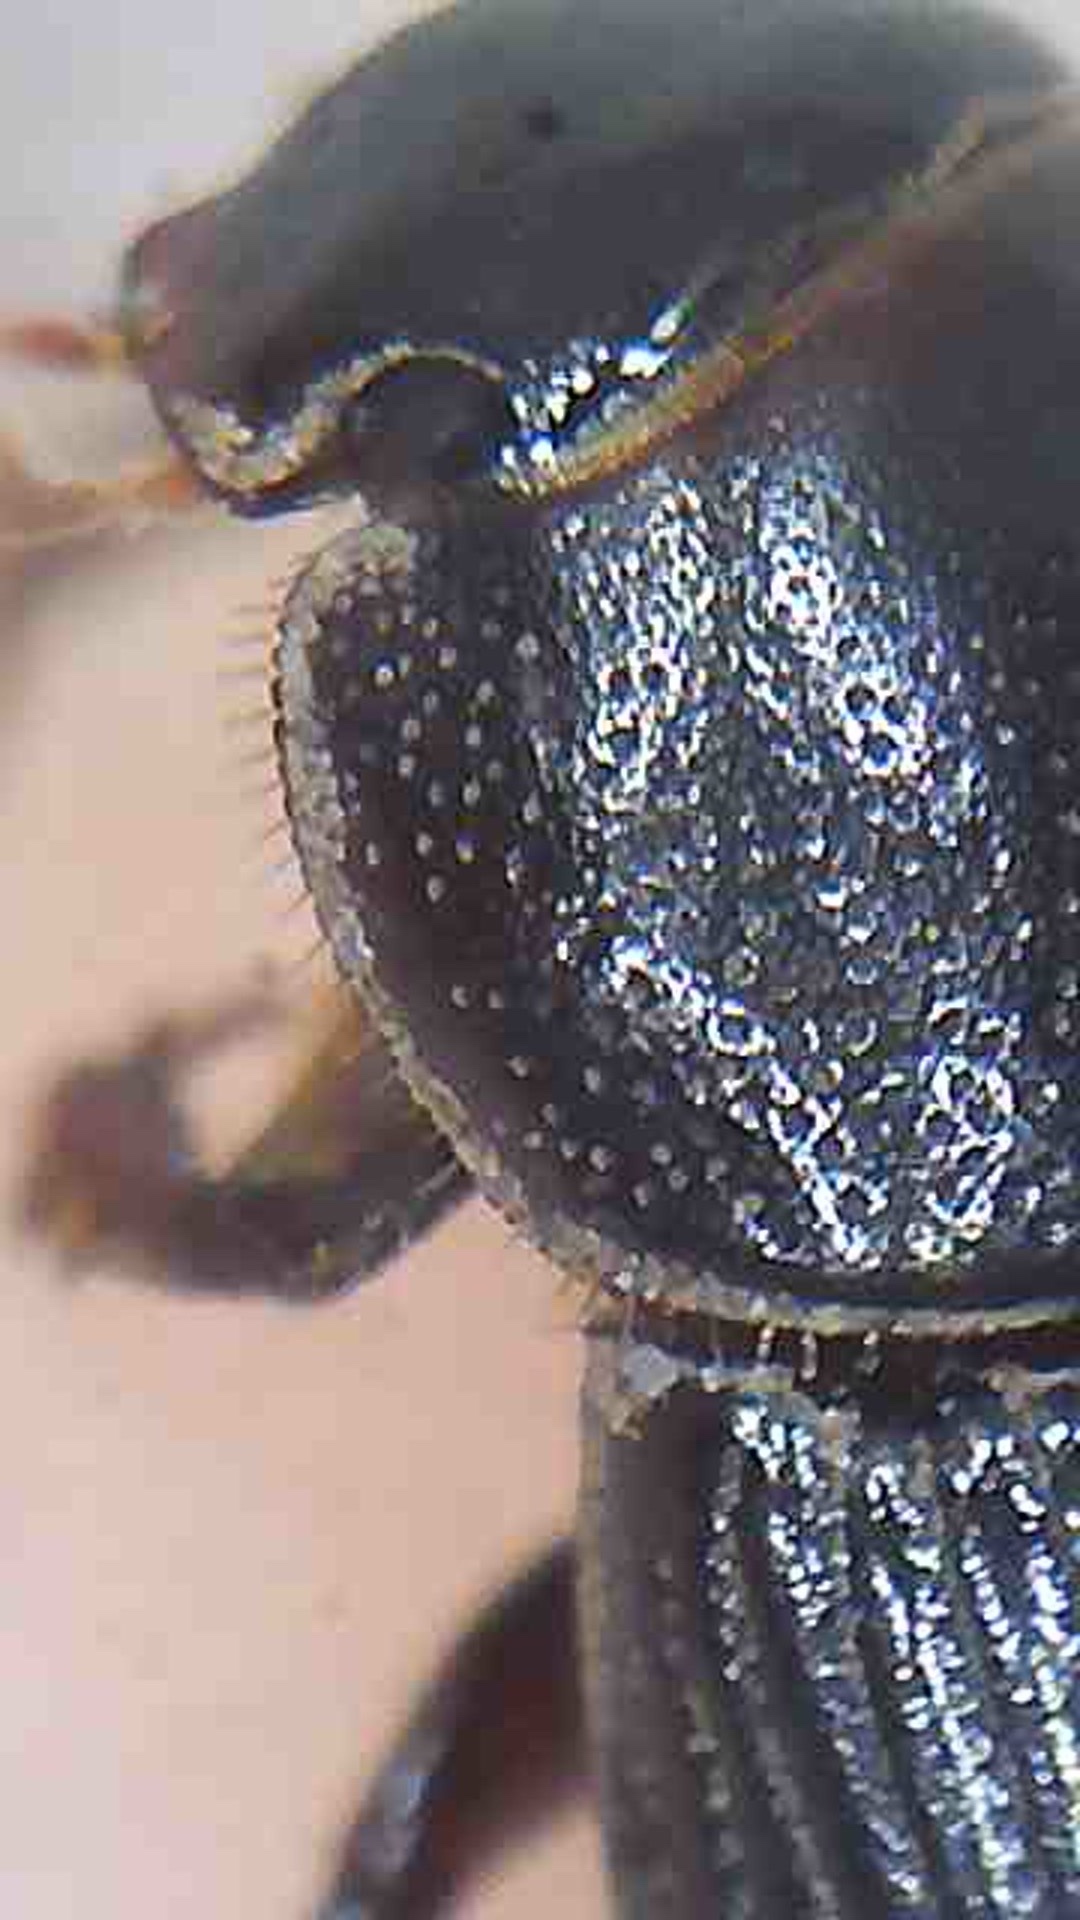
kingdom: Animalia
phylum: Arthropoda
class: Insecta
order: Coleoptera
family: Scarabaeidae
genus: Ataenius
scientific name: Ataenius picinus
